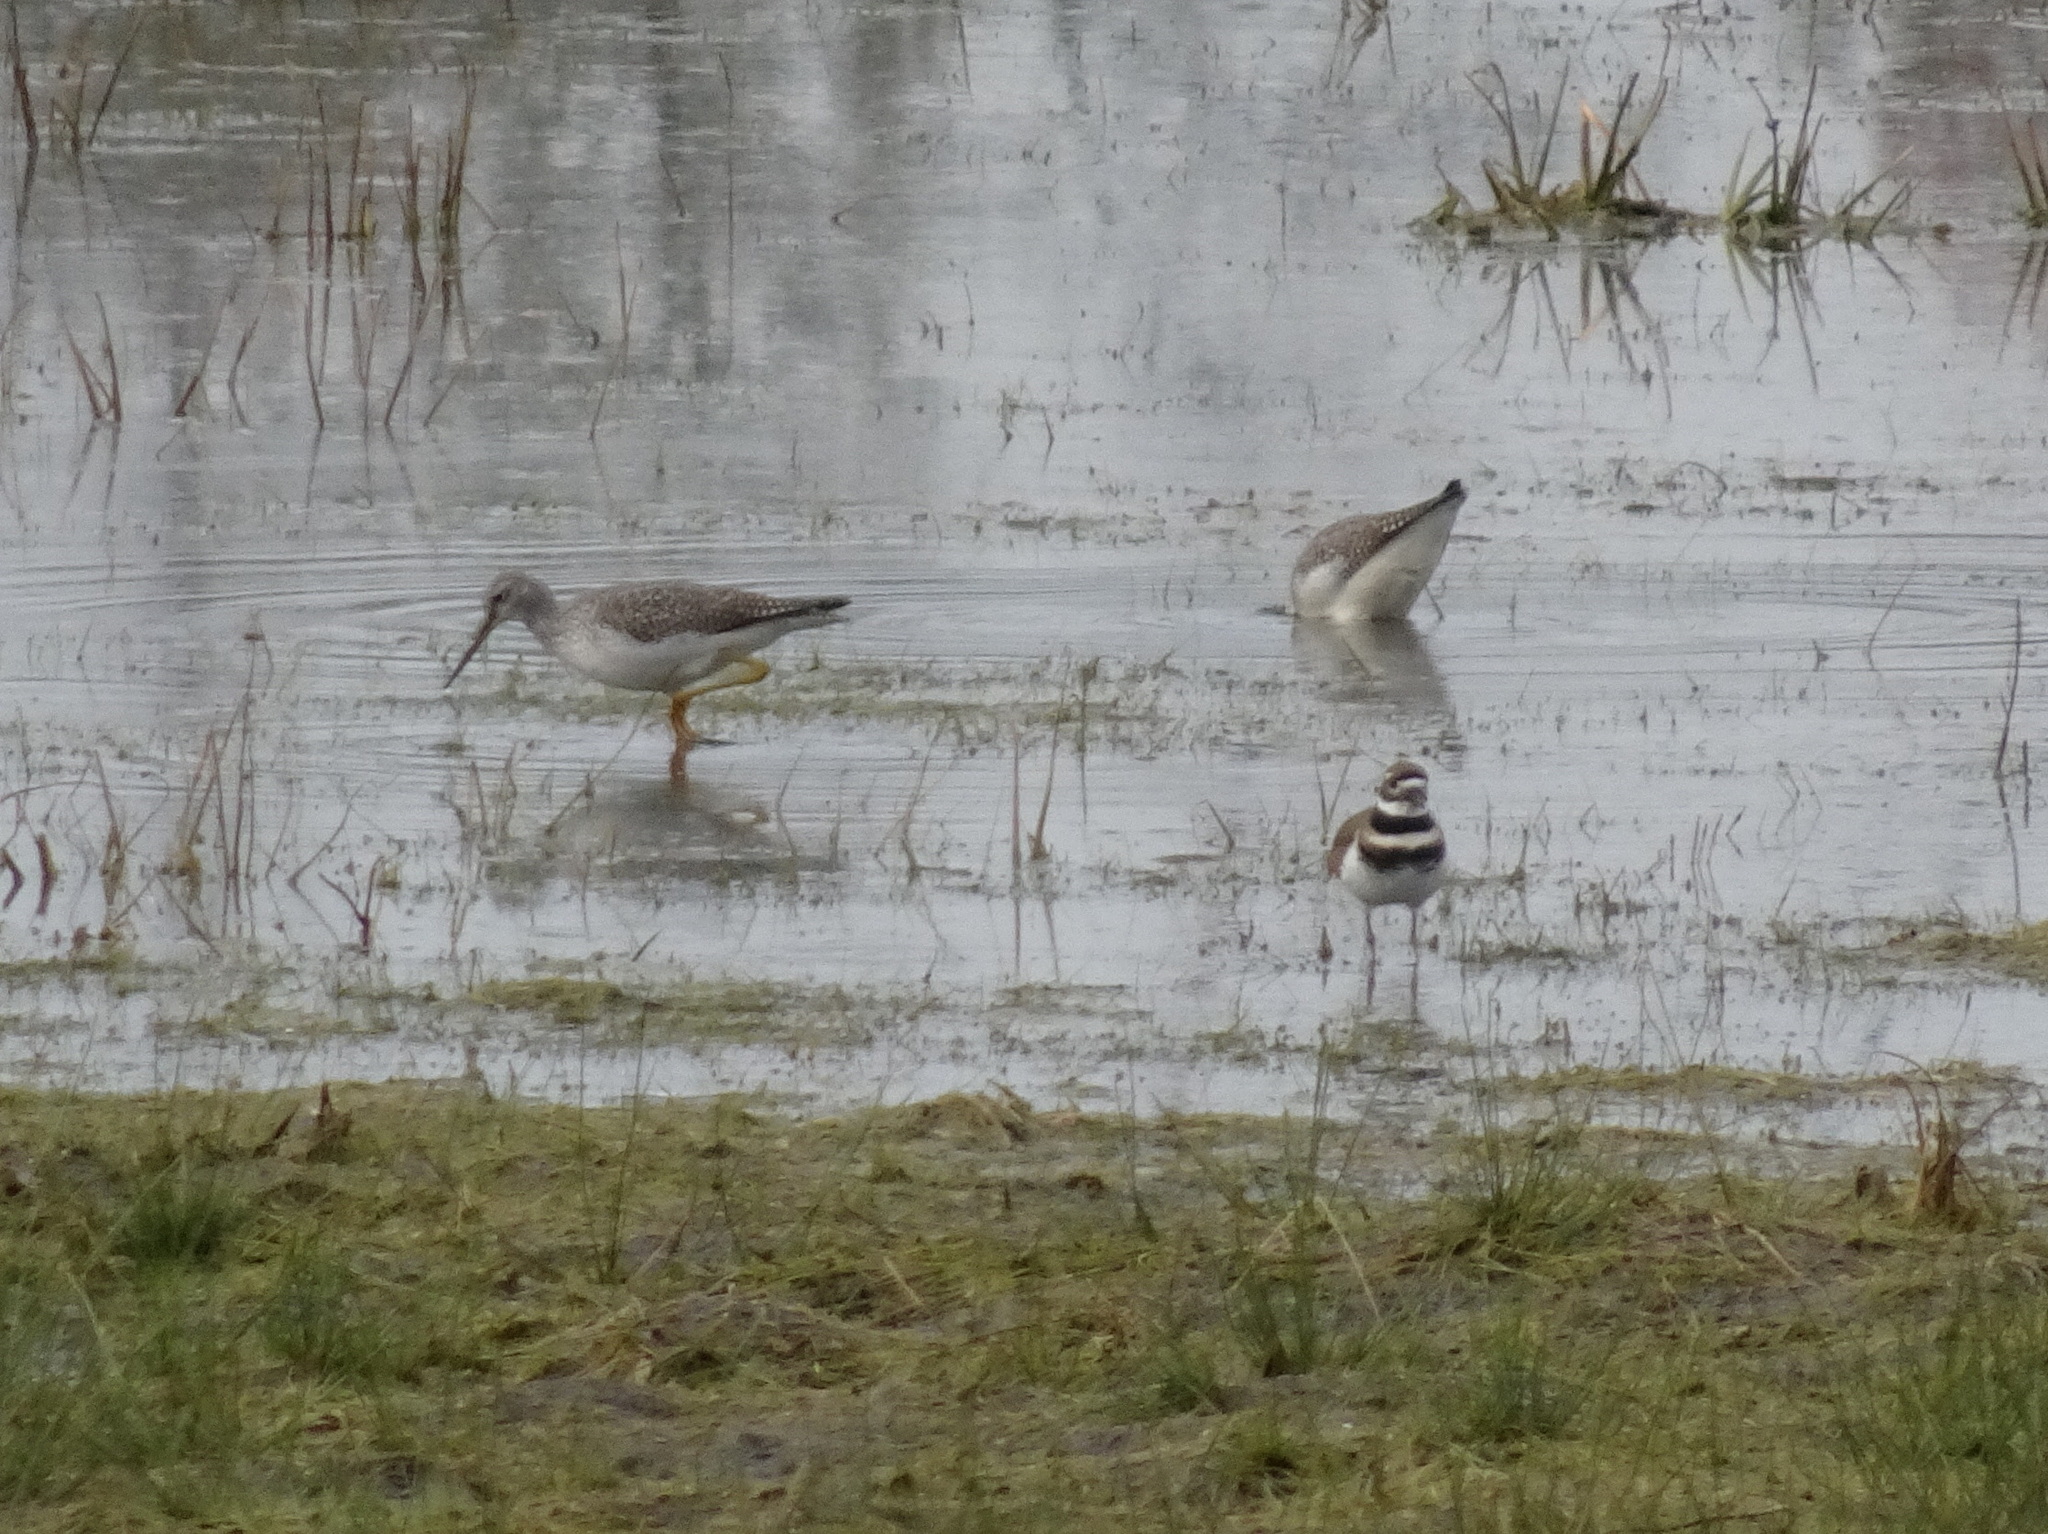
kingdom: Animalia
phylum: Chordata
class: Aves
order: Charadriiformes
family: Scolopacidae
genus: Tringa
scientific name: Tringa melanoleuca
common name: Greater yellowlegs
